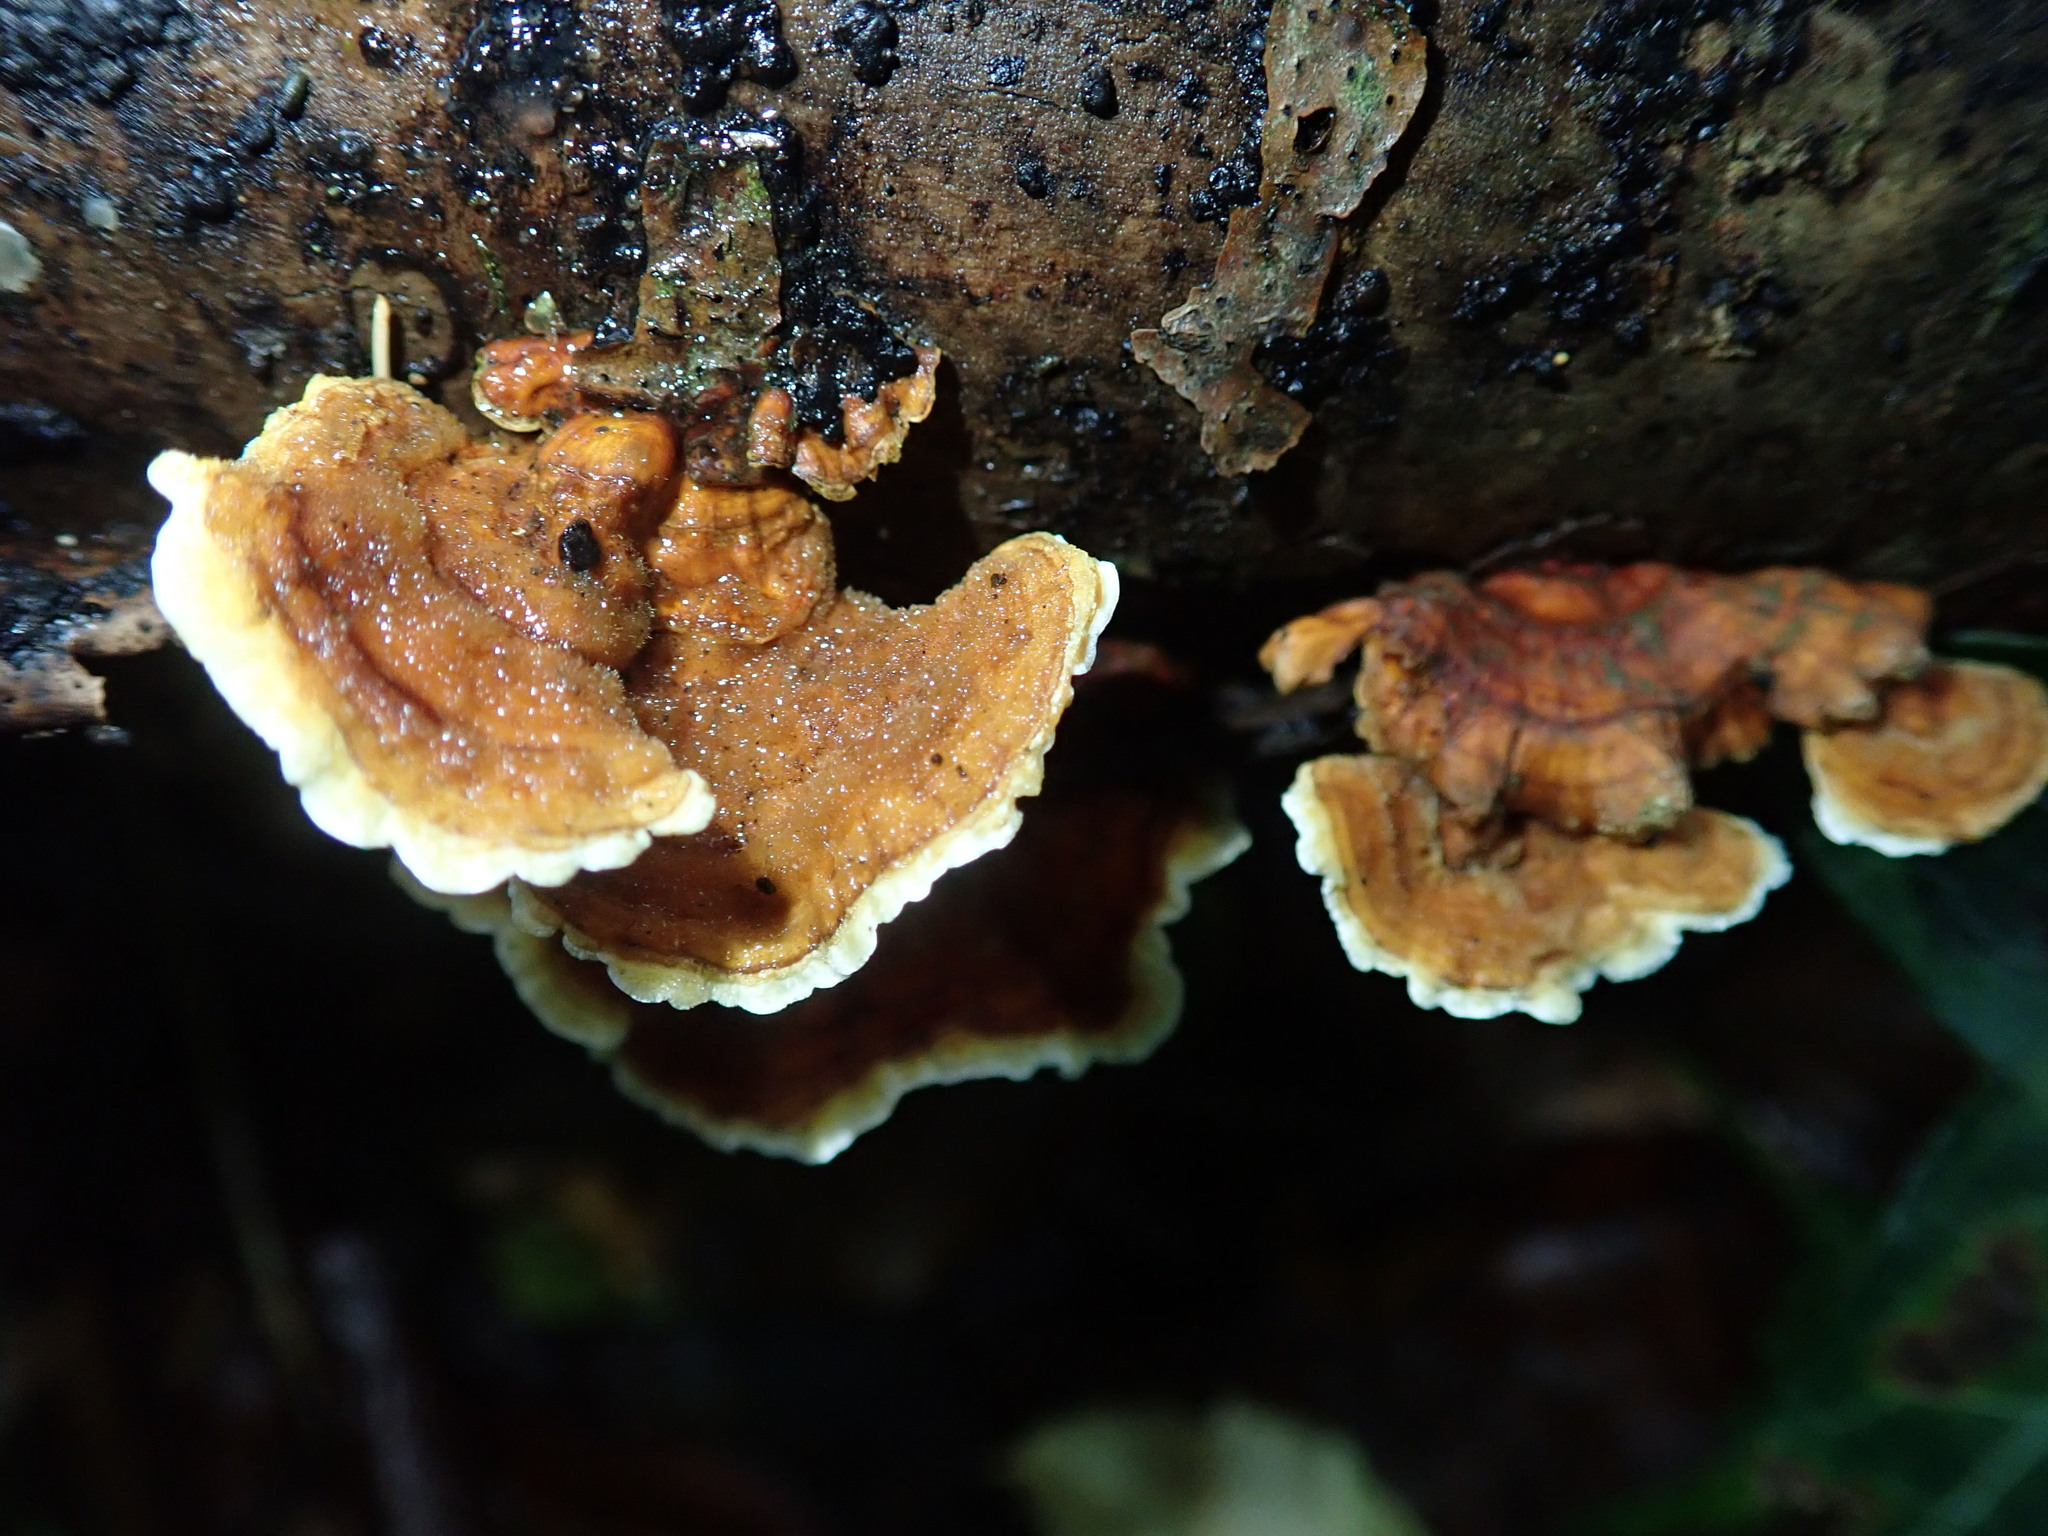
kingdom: Fungi
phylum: Basidiomycota
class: Agaricomycetes
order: Russulales
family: Stereaceae
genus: Stereum
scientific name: Stereum hirsutum
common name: Hairy curtain crust
